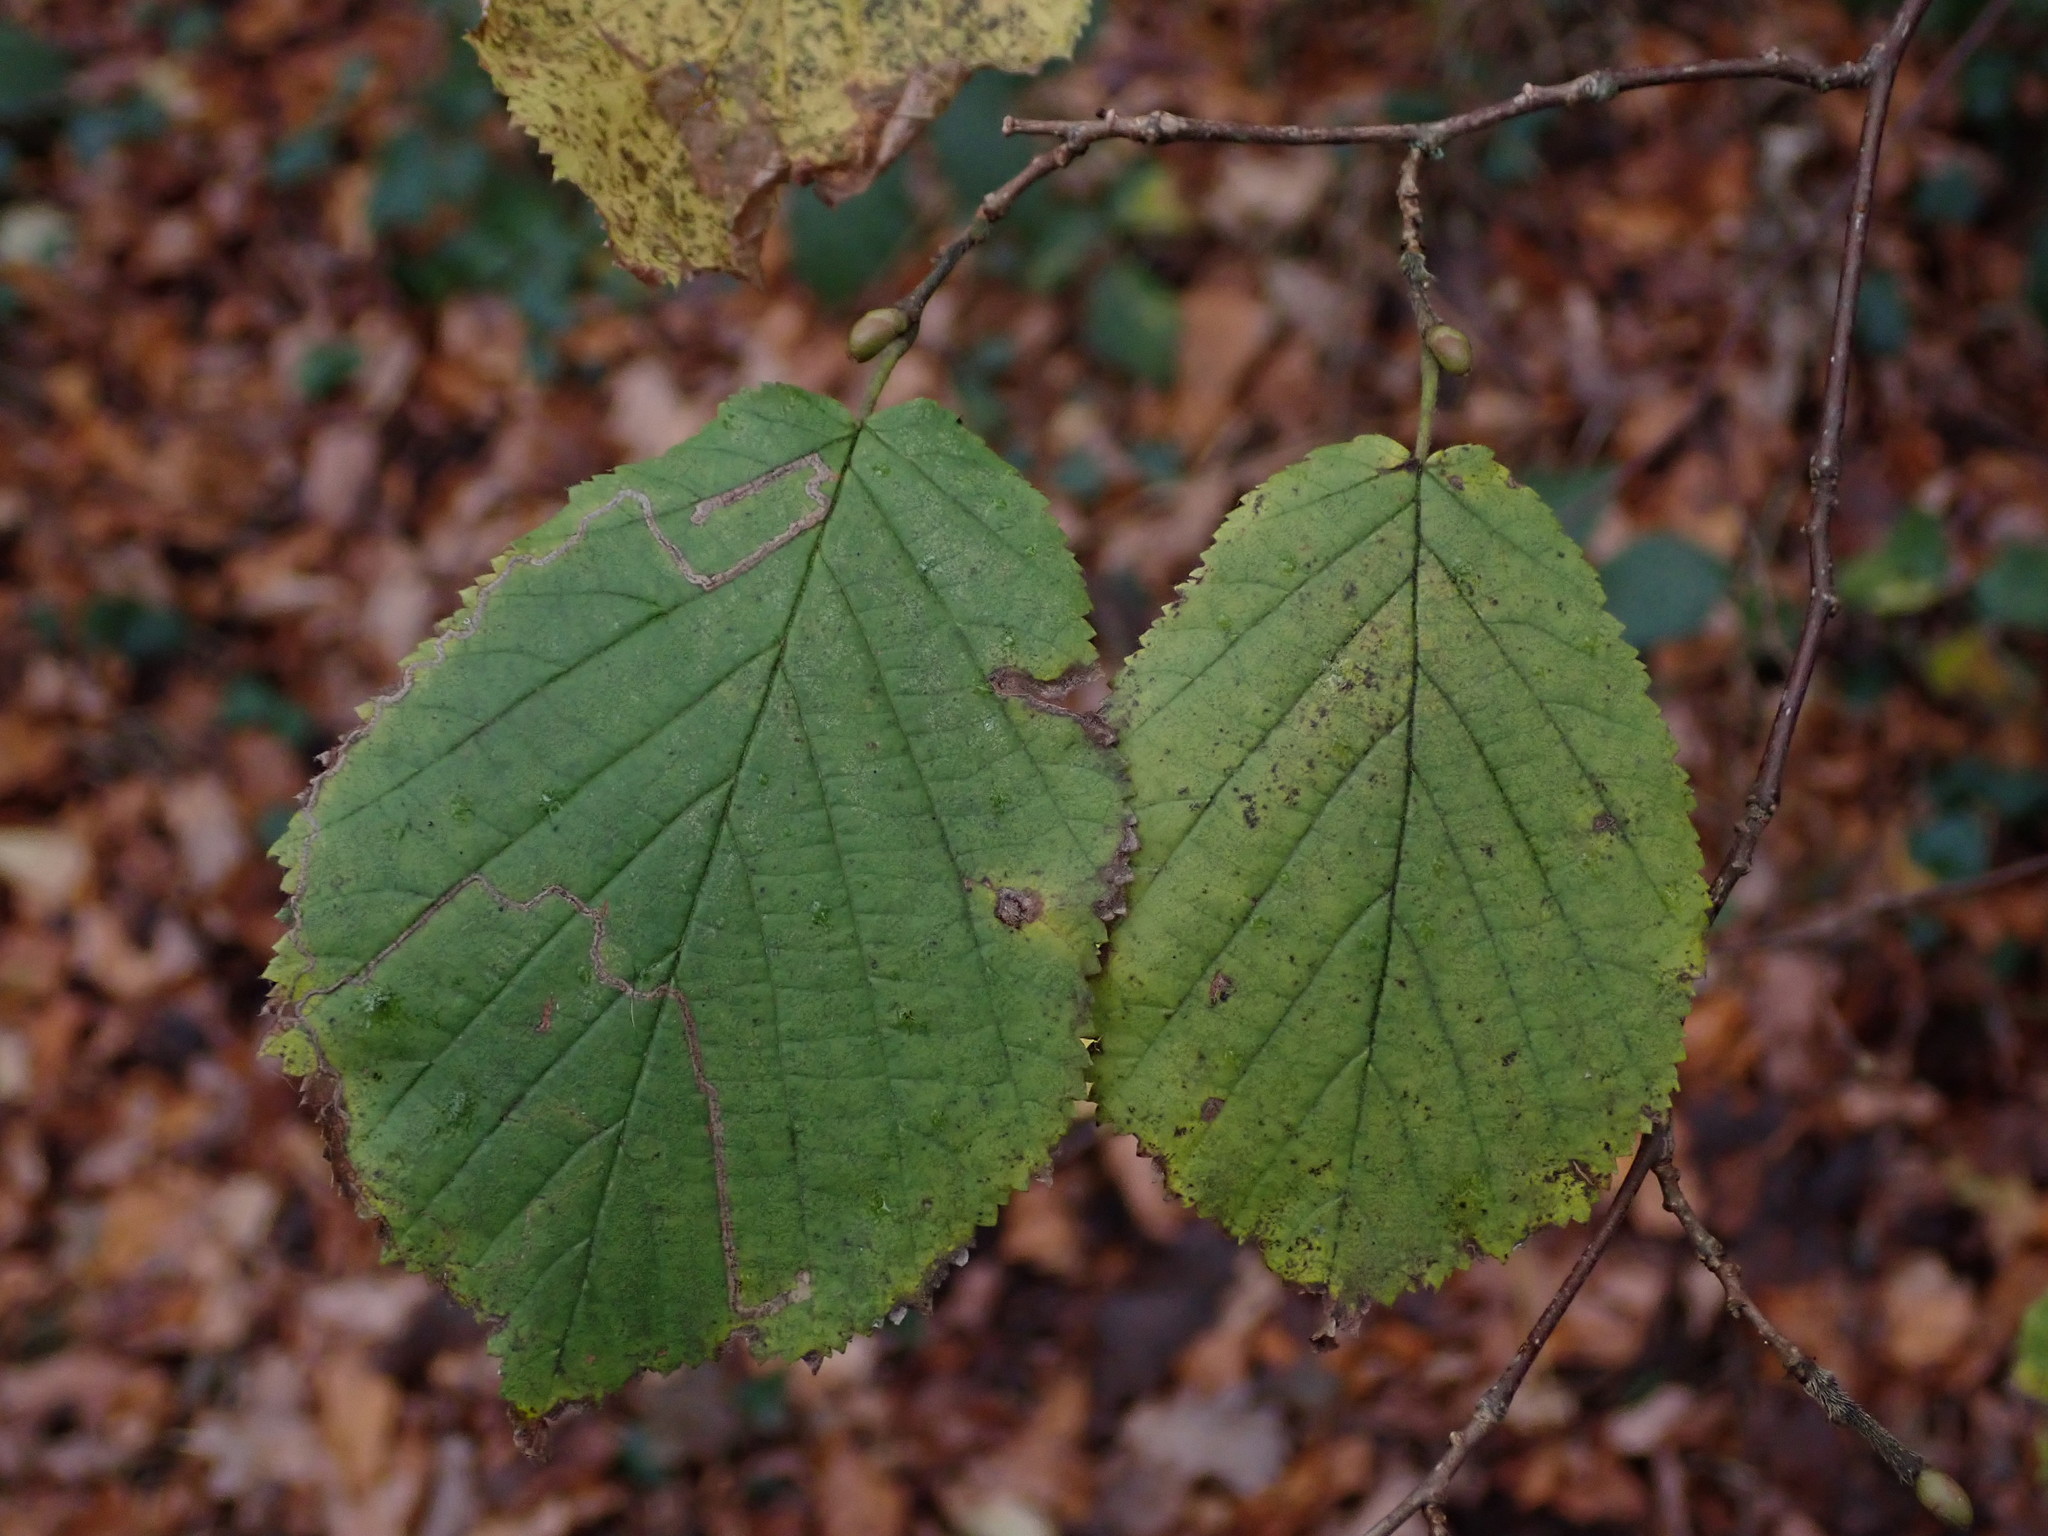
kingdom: Plantae
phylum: Tracheophyta
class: Magnoliopsida
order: Fagales
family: Betulaceae
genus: Corylus
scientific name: Corylus avellana
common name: European hazel
